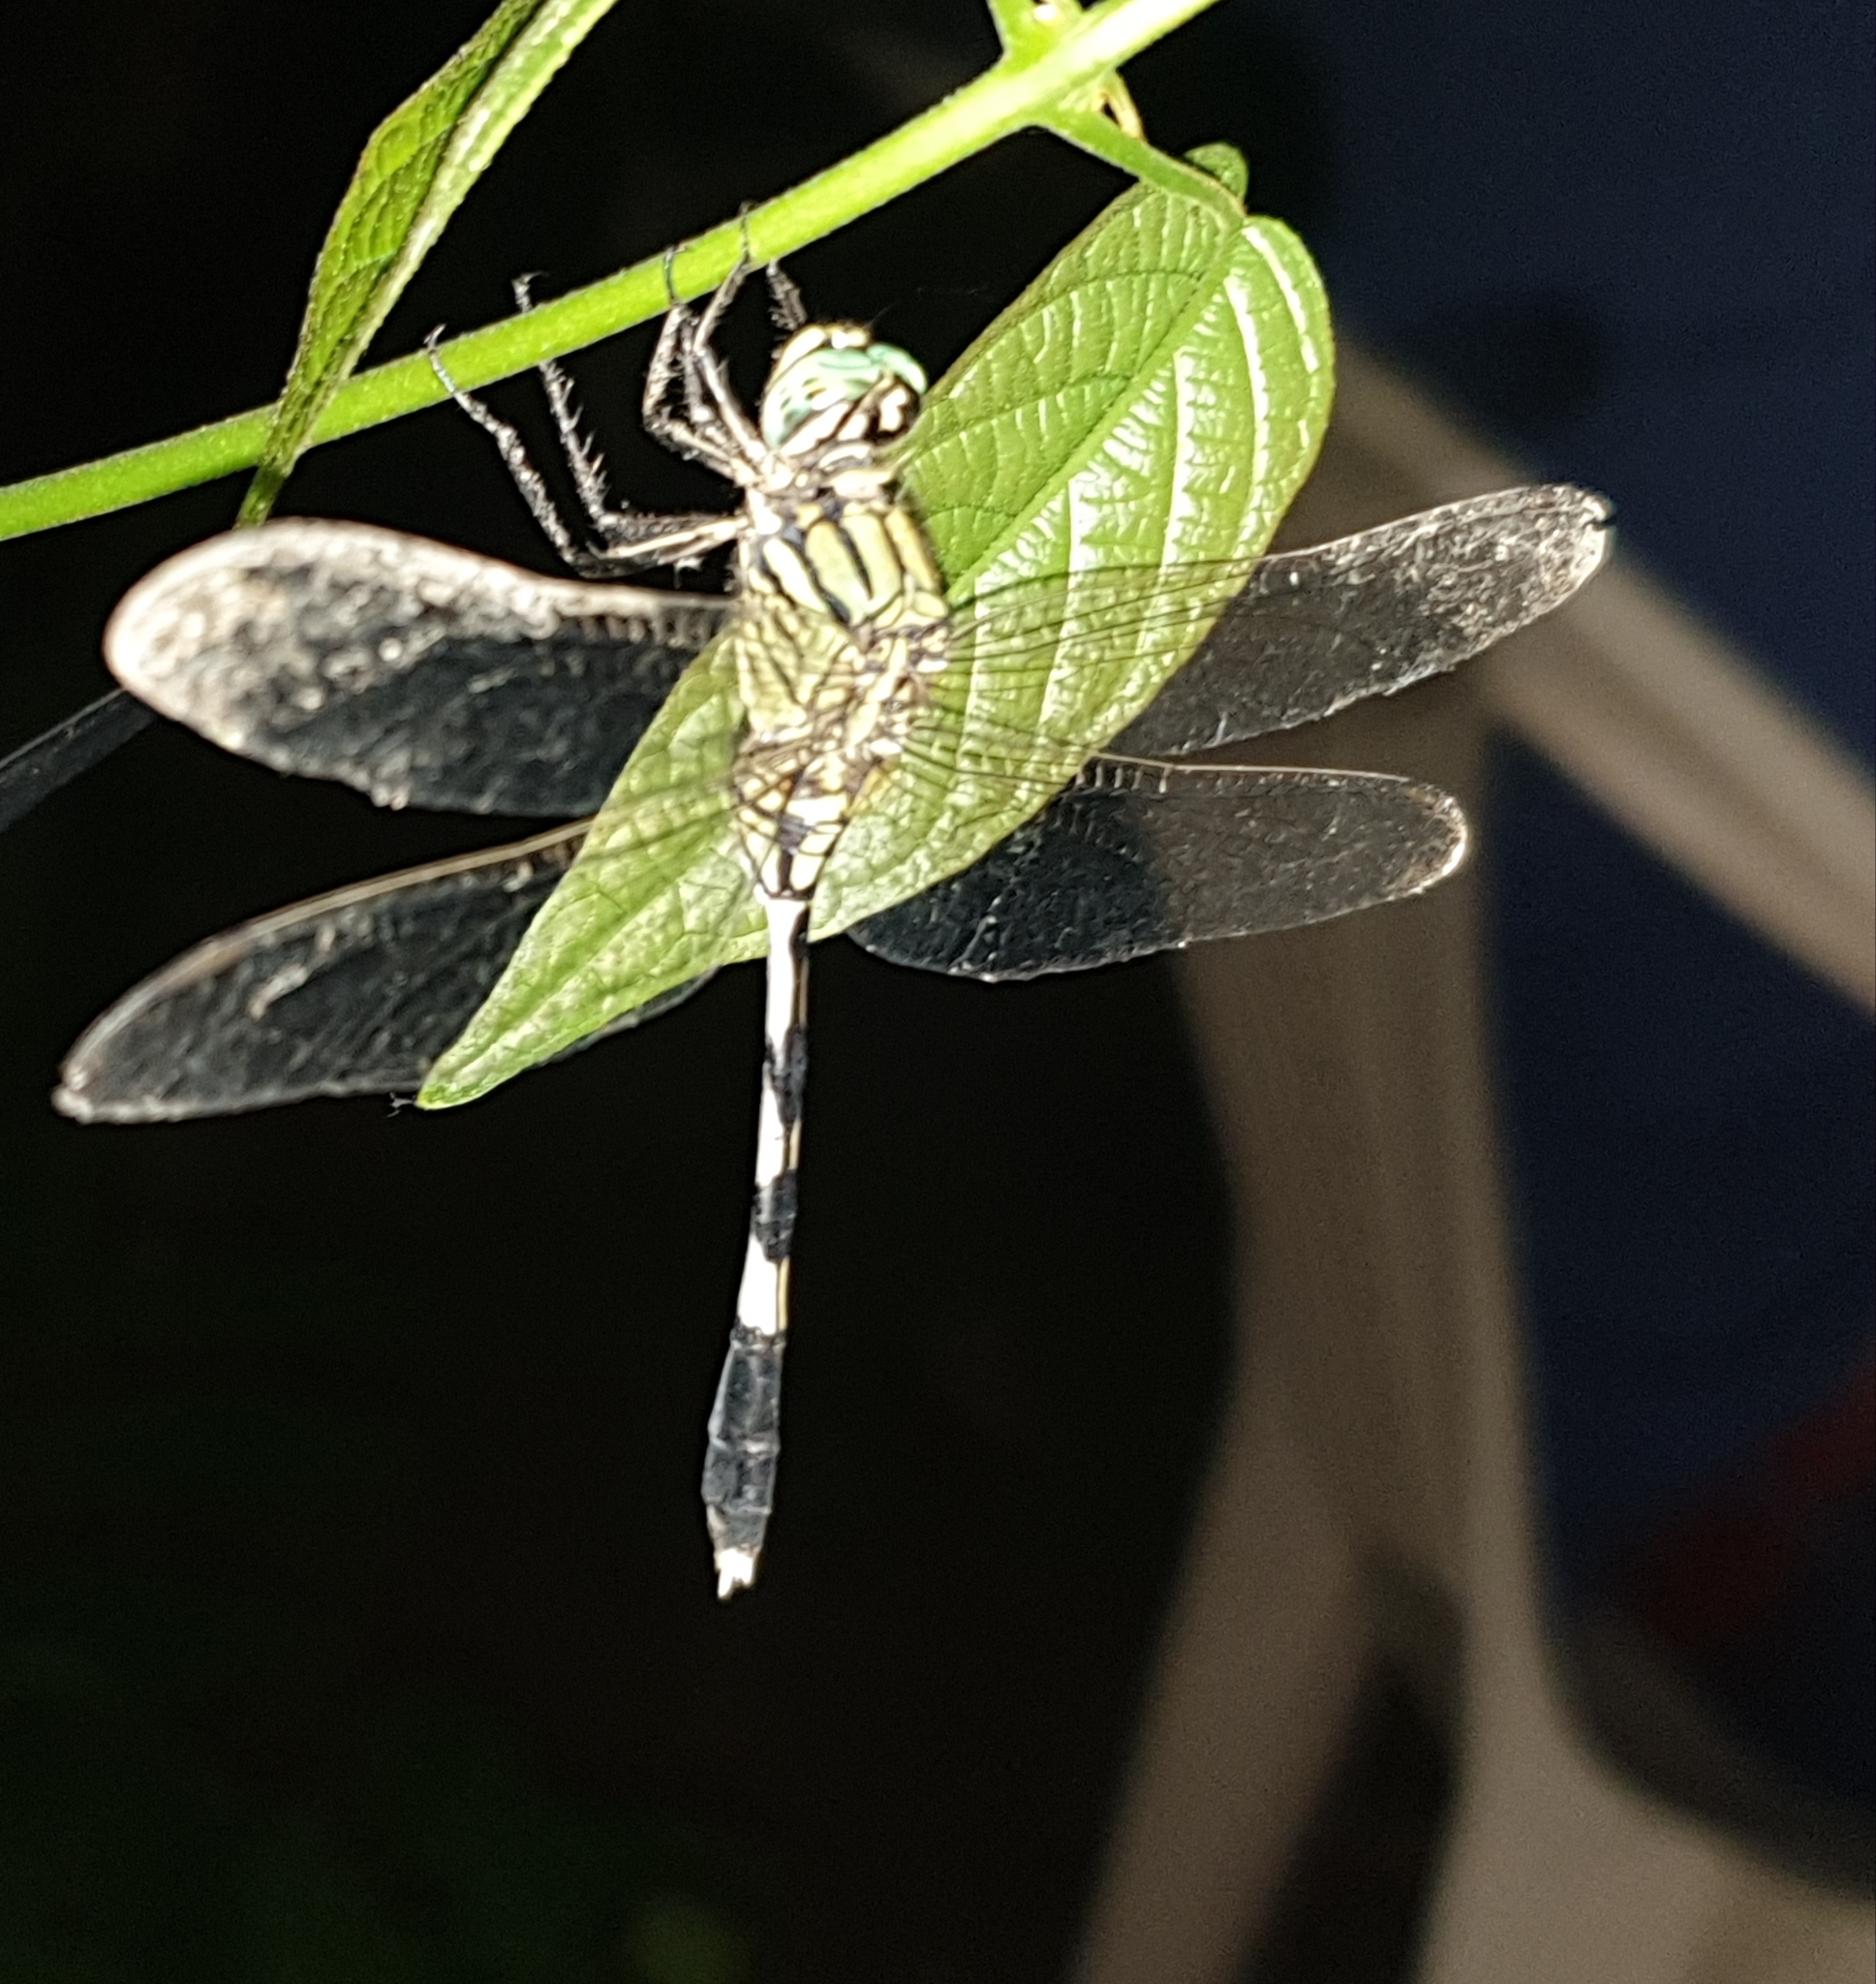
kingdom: Animalia
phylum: Arthropoda
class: Insecta
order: Odonata
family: Libellulidae
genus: Orthetrum
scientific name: Orthetrum sabina
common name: Slender skimmer
